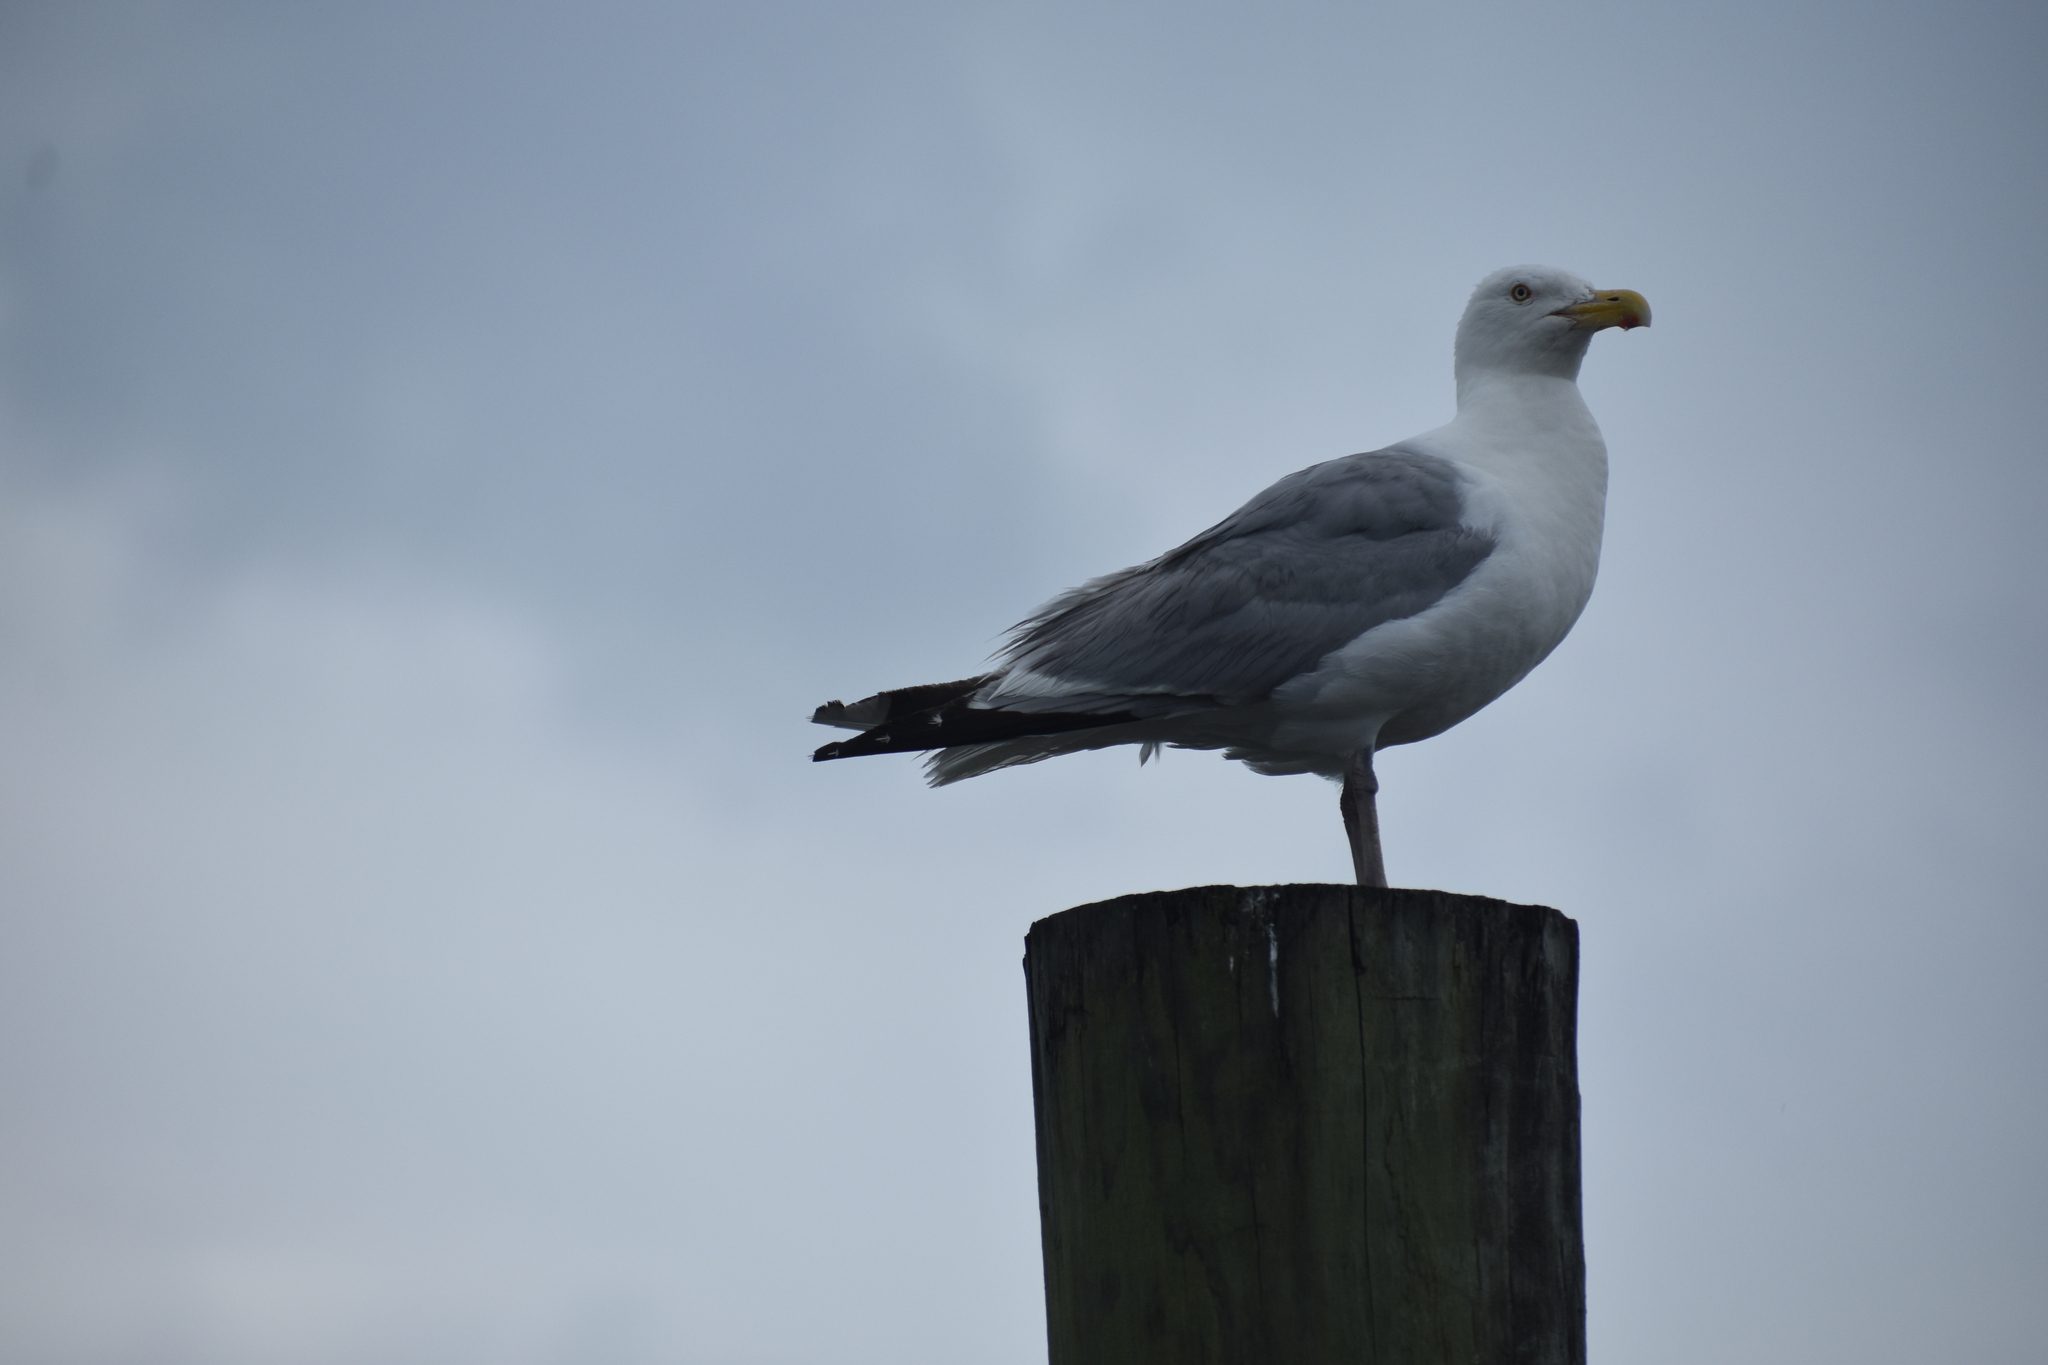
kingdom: Animalia
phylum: Chordata
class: Aves
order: Charadriiformes
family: Laridae
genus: Larus
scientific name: Larus argentatus
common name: Herring gull
